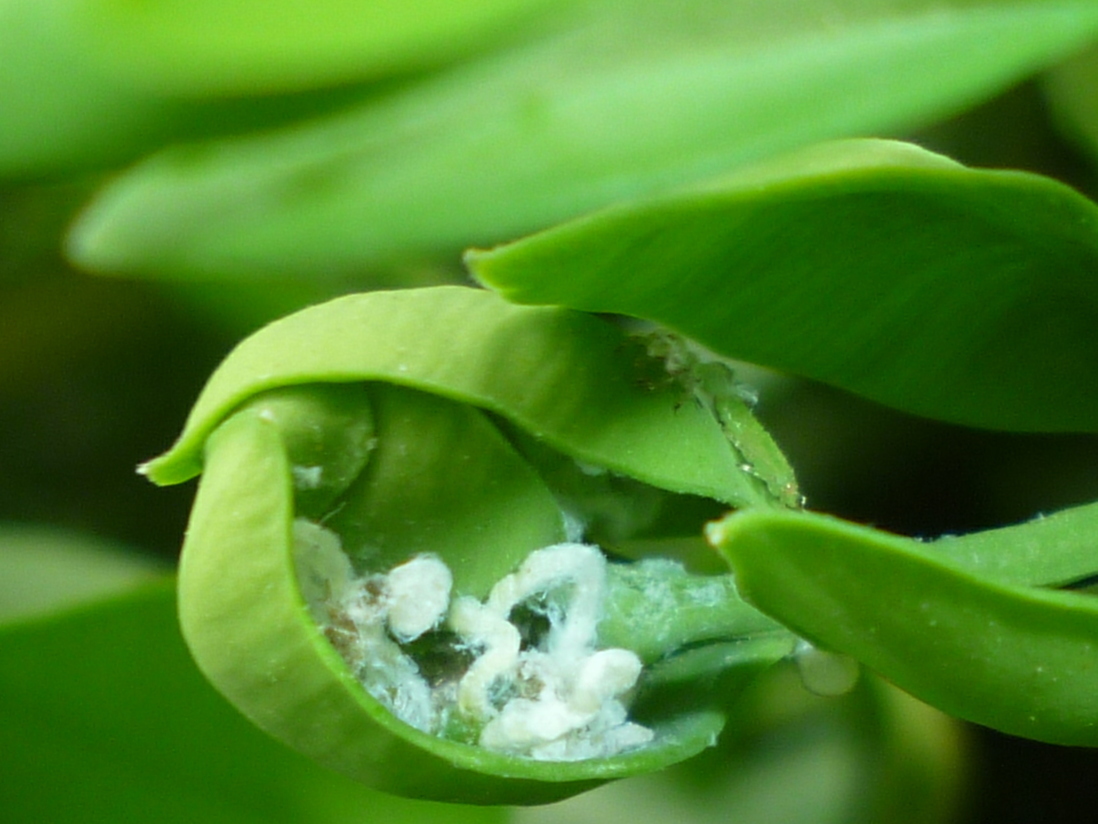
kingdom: Animalia
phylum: Arthropoda
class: Insecta
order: Hemiptera
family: Psyllidae
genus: Psylla
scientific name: Psylla buxi
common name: Boxwood psyllid
